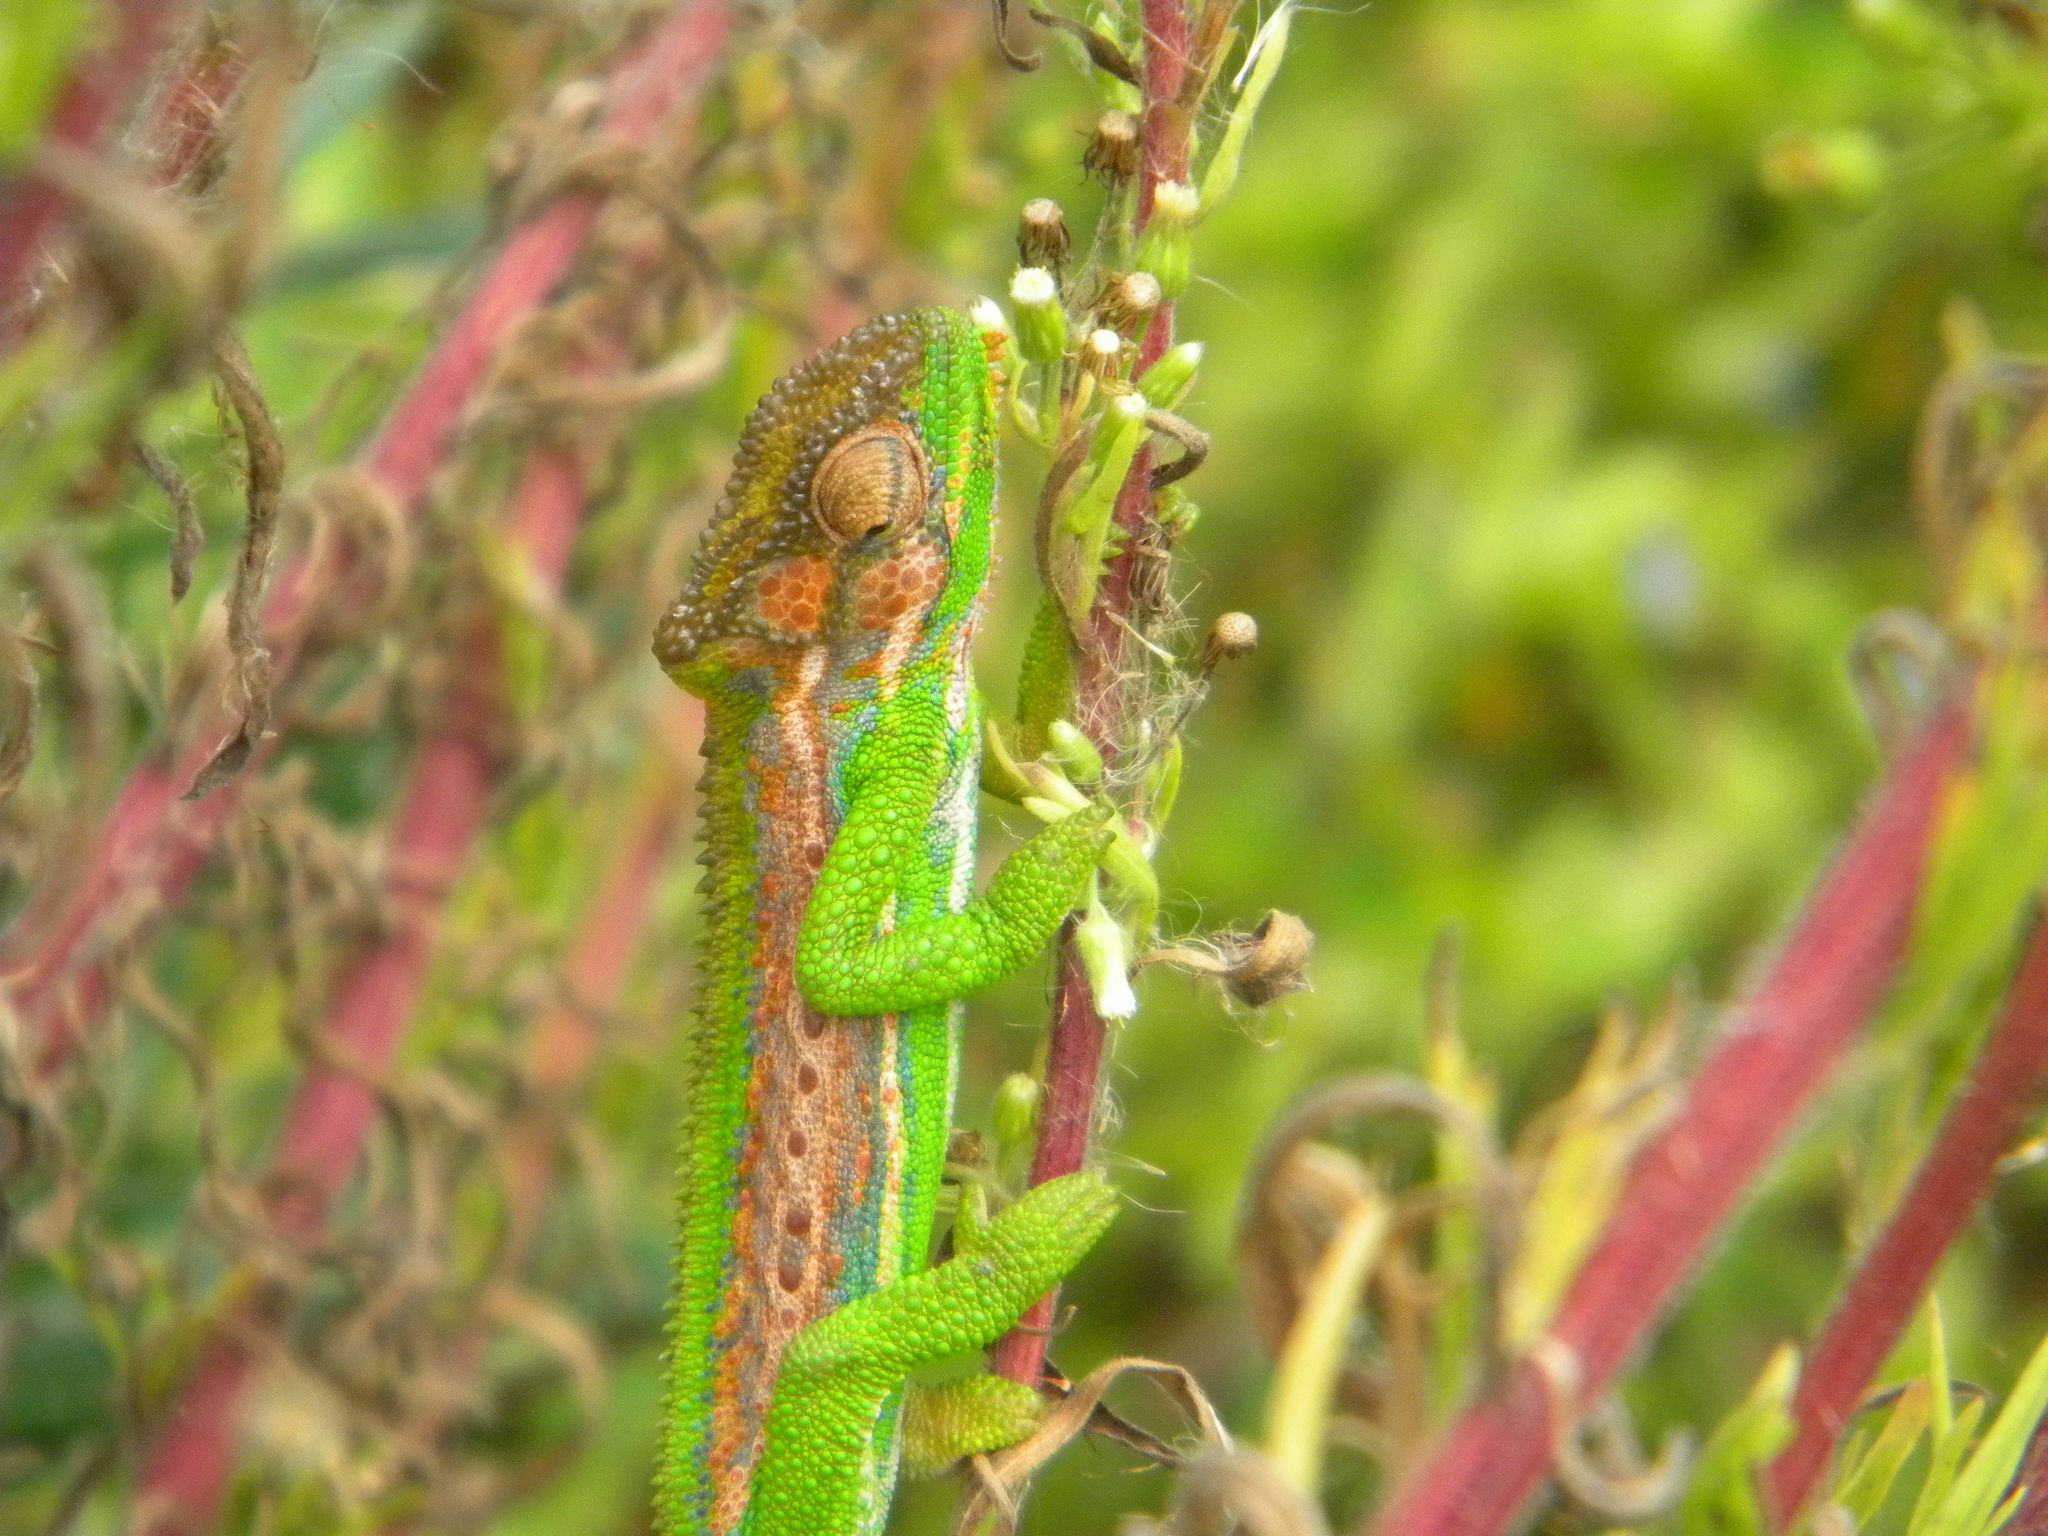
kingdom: Animalia
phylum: Chordata
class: Squamata
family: Chamaeleonidae
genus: Bradypodion
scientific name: Bradypodion pumilum
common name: Cape dwarf chameleon
